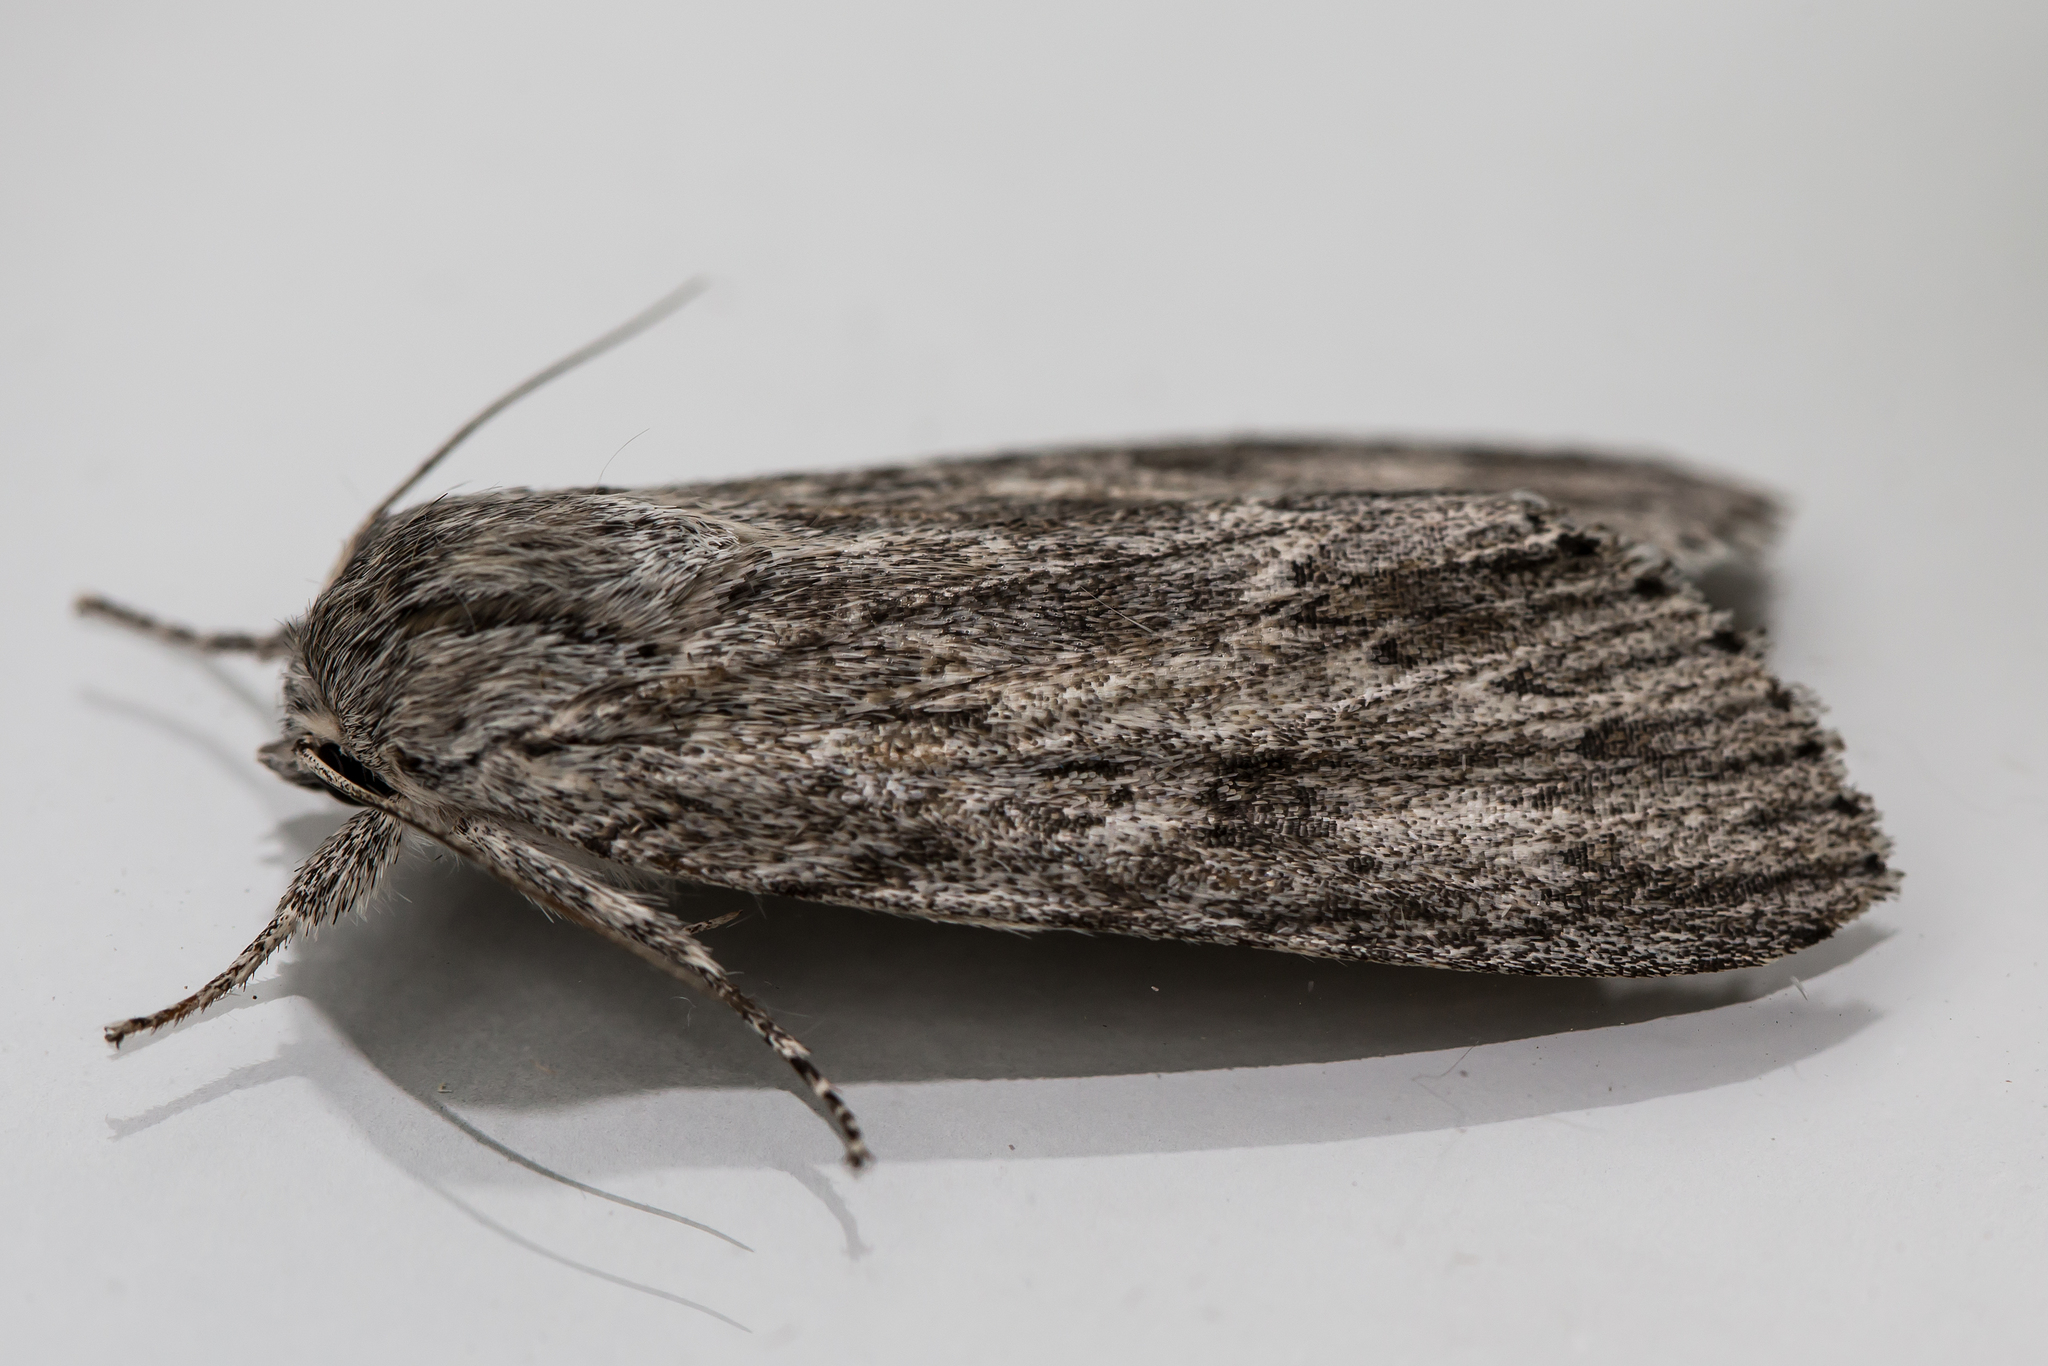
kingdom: Animalia
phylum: Arthropoda
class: Insecta
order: Lepidoptera
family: Noctuidae
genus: Acronicta
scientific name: Acronicta oblinita
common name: Smeared dagger
